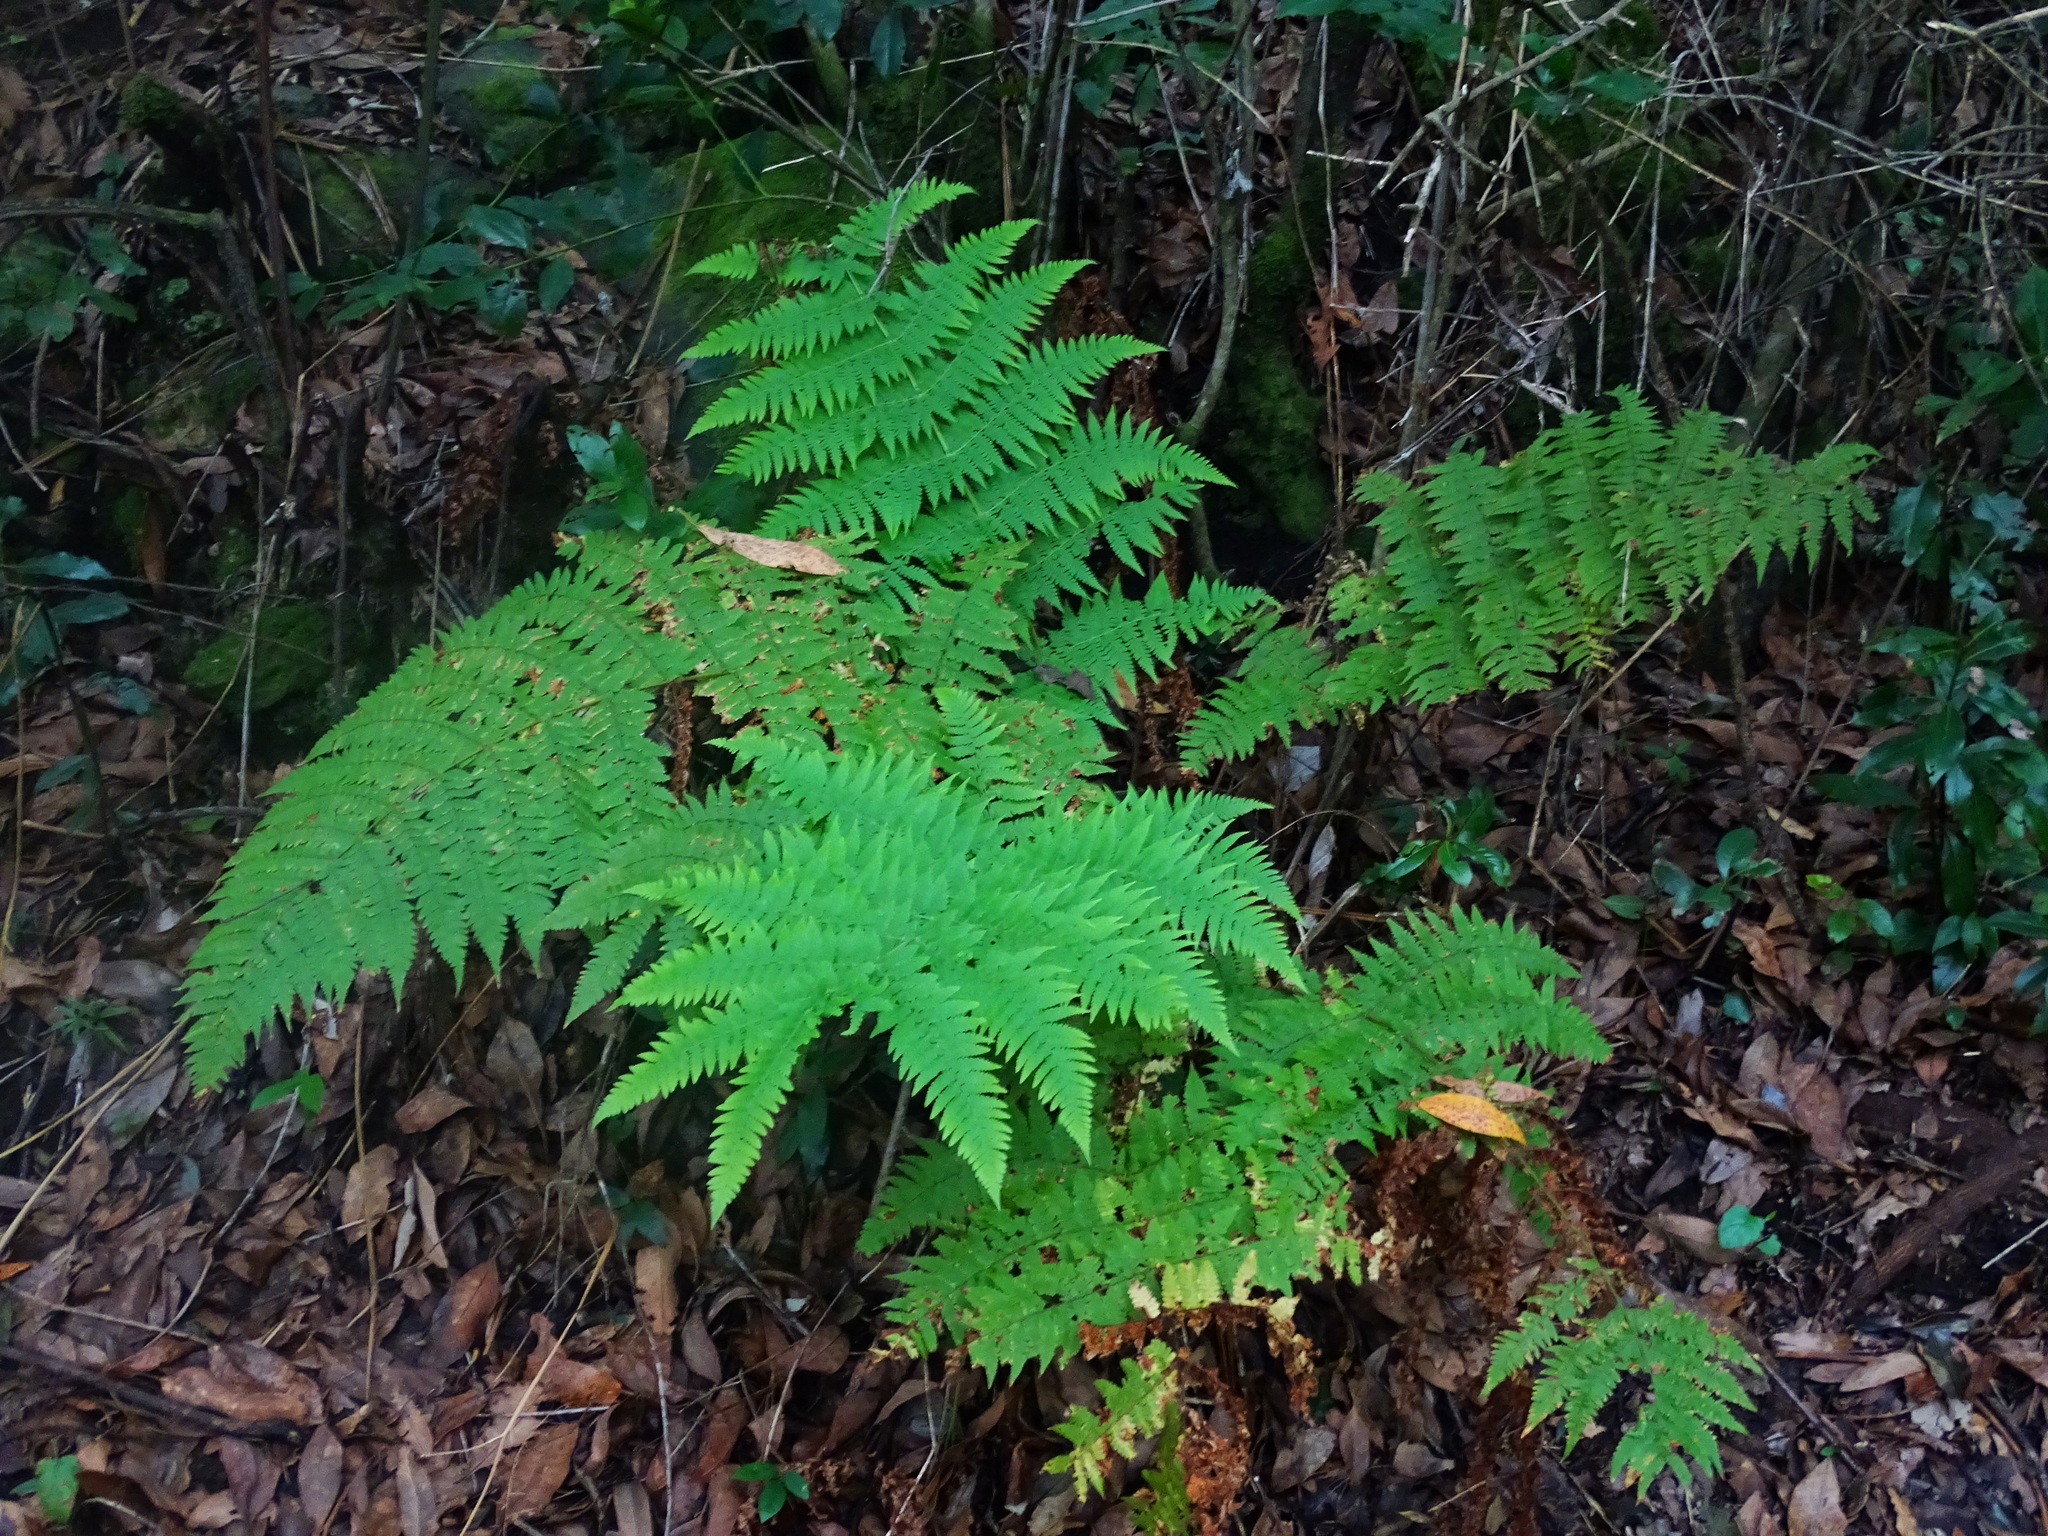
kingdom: Plantae
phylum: Tracheophyta
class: Polypodiopsida
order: Polypodiales
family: Dryopteridaceae
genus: Dryopteris
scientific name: Dryopteris oligodonta
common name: Canarian male-fern
